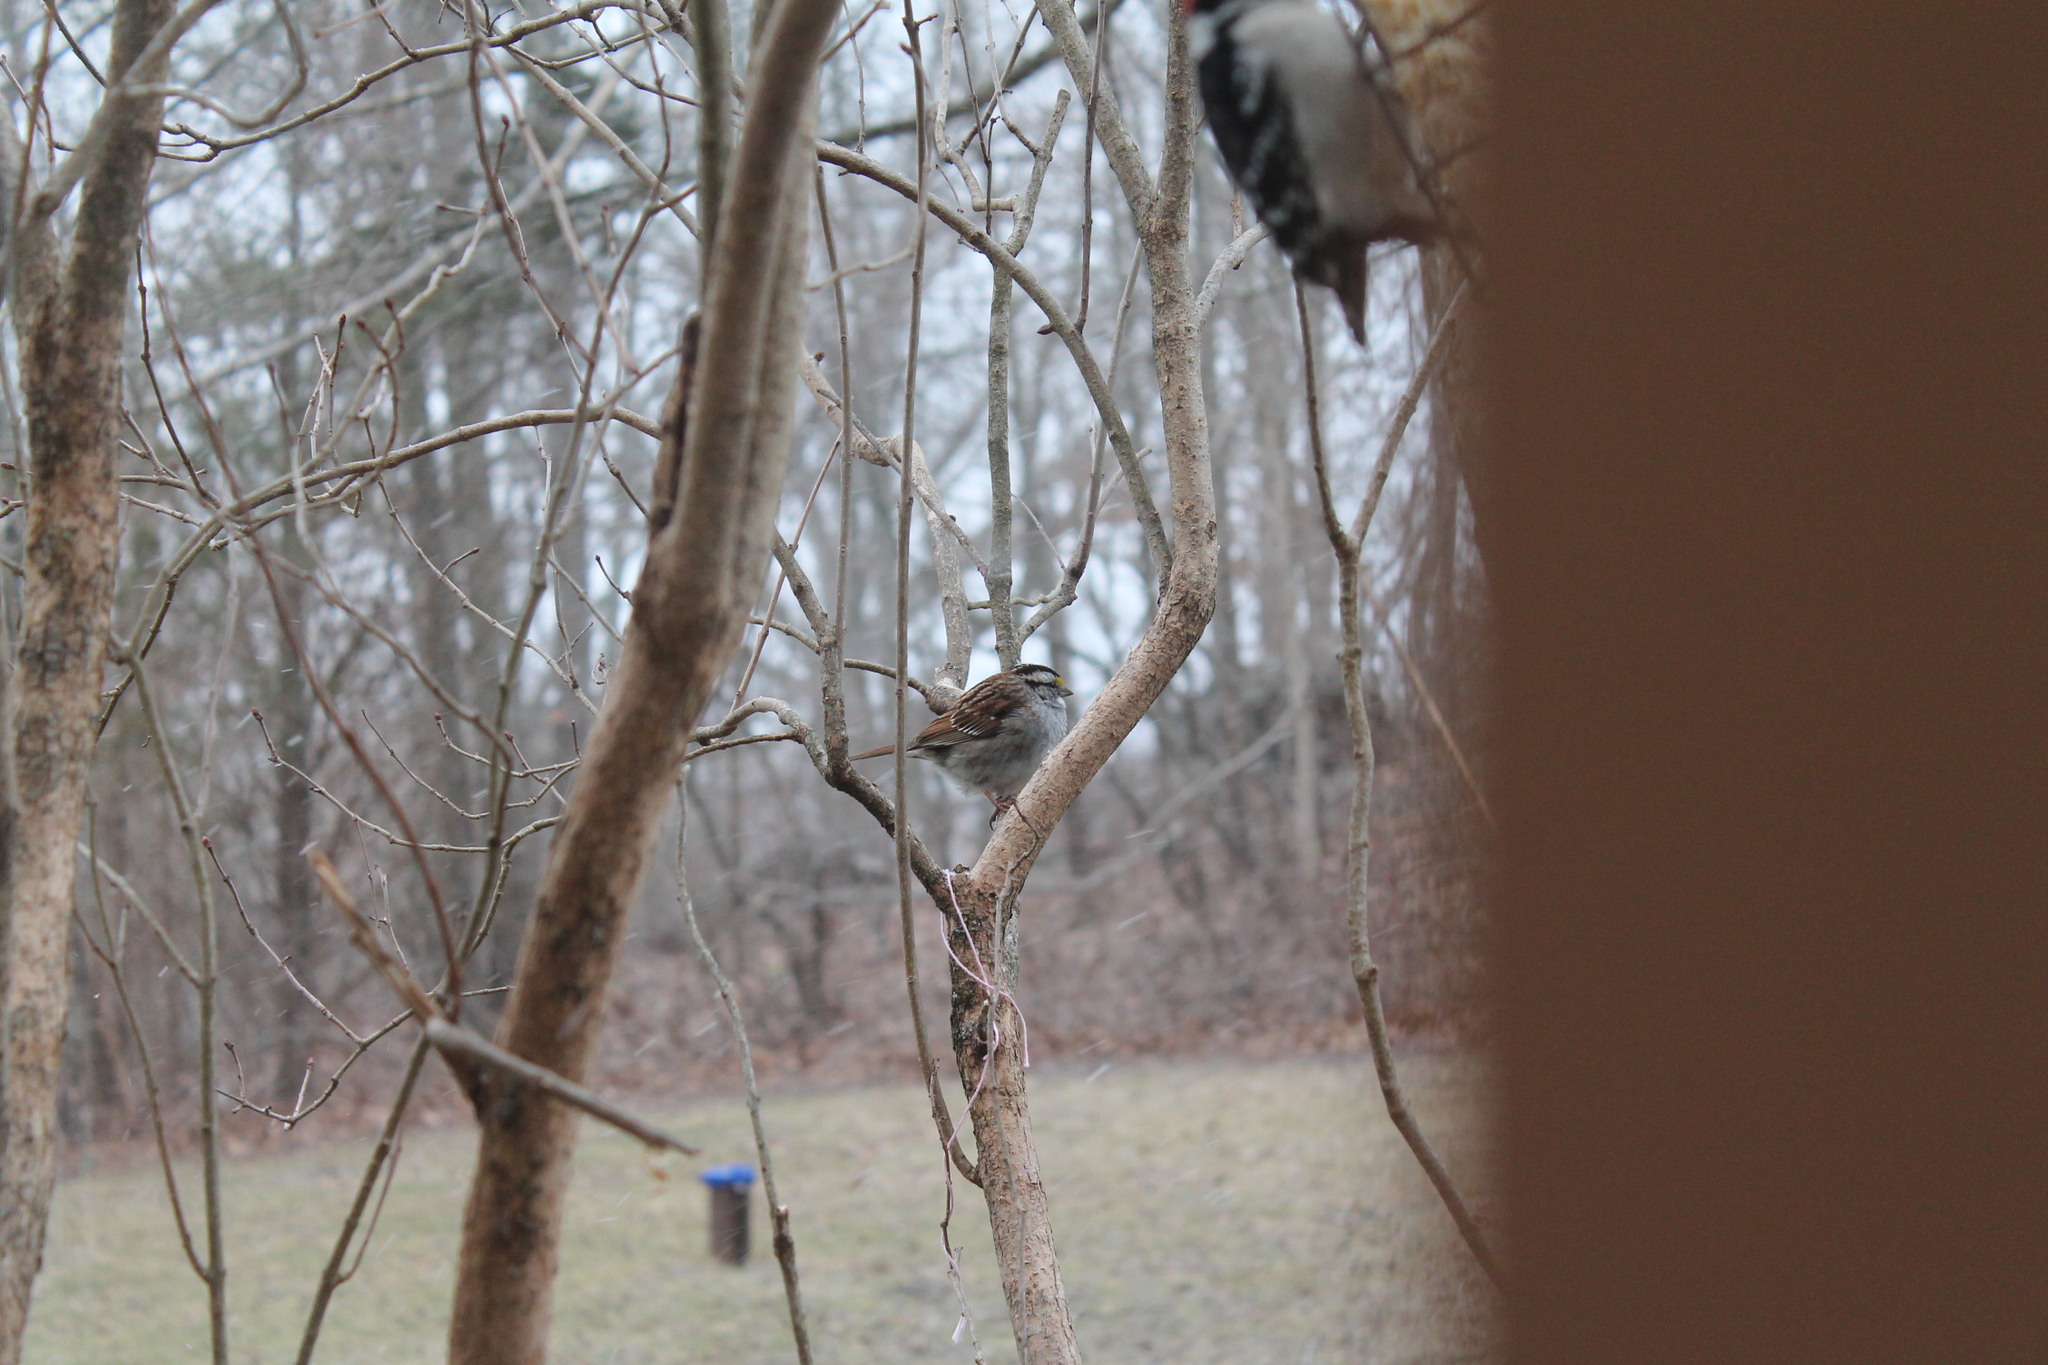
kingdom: Animalia
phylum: Chordata
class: Aves
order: Passeriformes
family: Passerellidae
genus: Zonotrichia
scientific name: Zonotrichia albicollis
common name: White-throated sparrow
